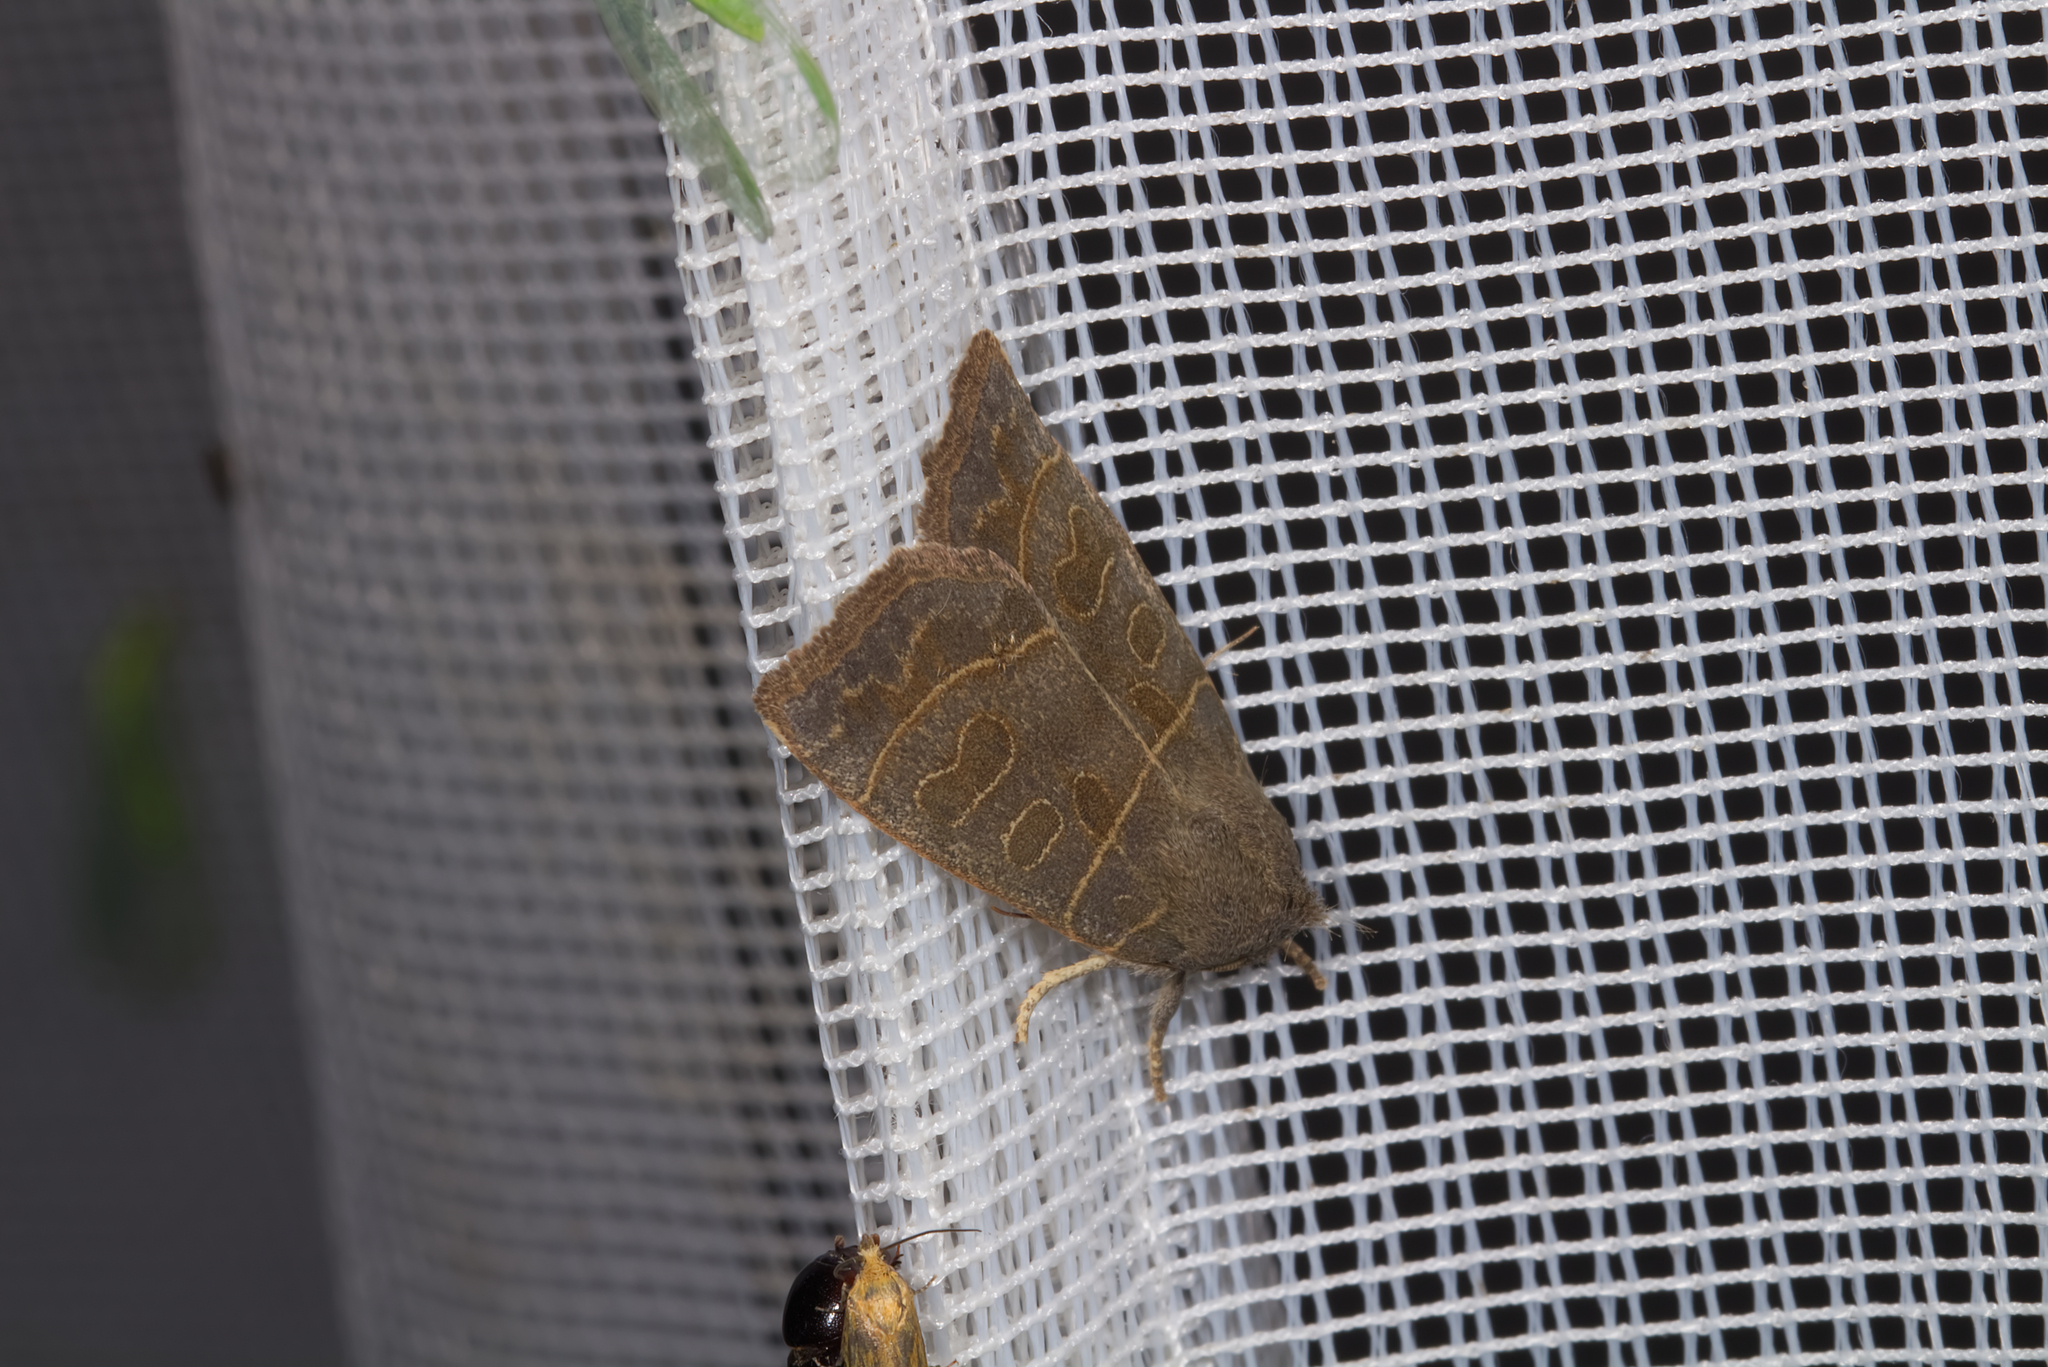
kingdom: Animalia
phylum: Arthropoda
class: Insecta
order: Lepidoptera
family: Noctuidae
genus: Ipimorpha
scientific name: Ipimorpha subtusa
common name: Olive
